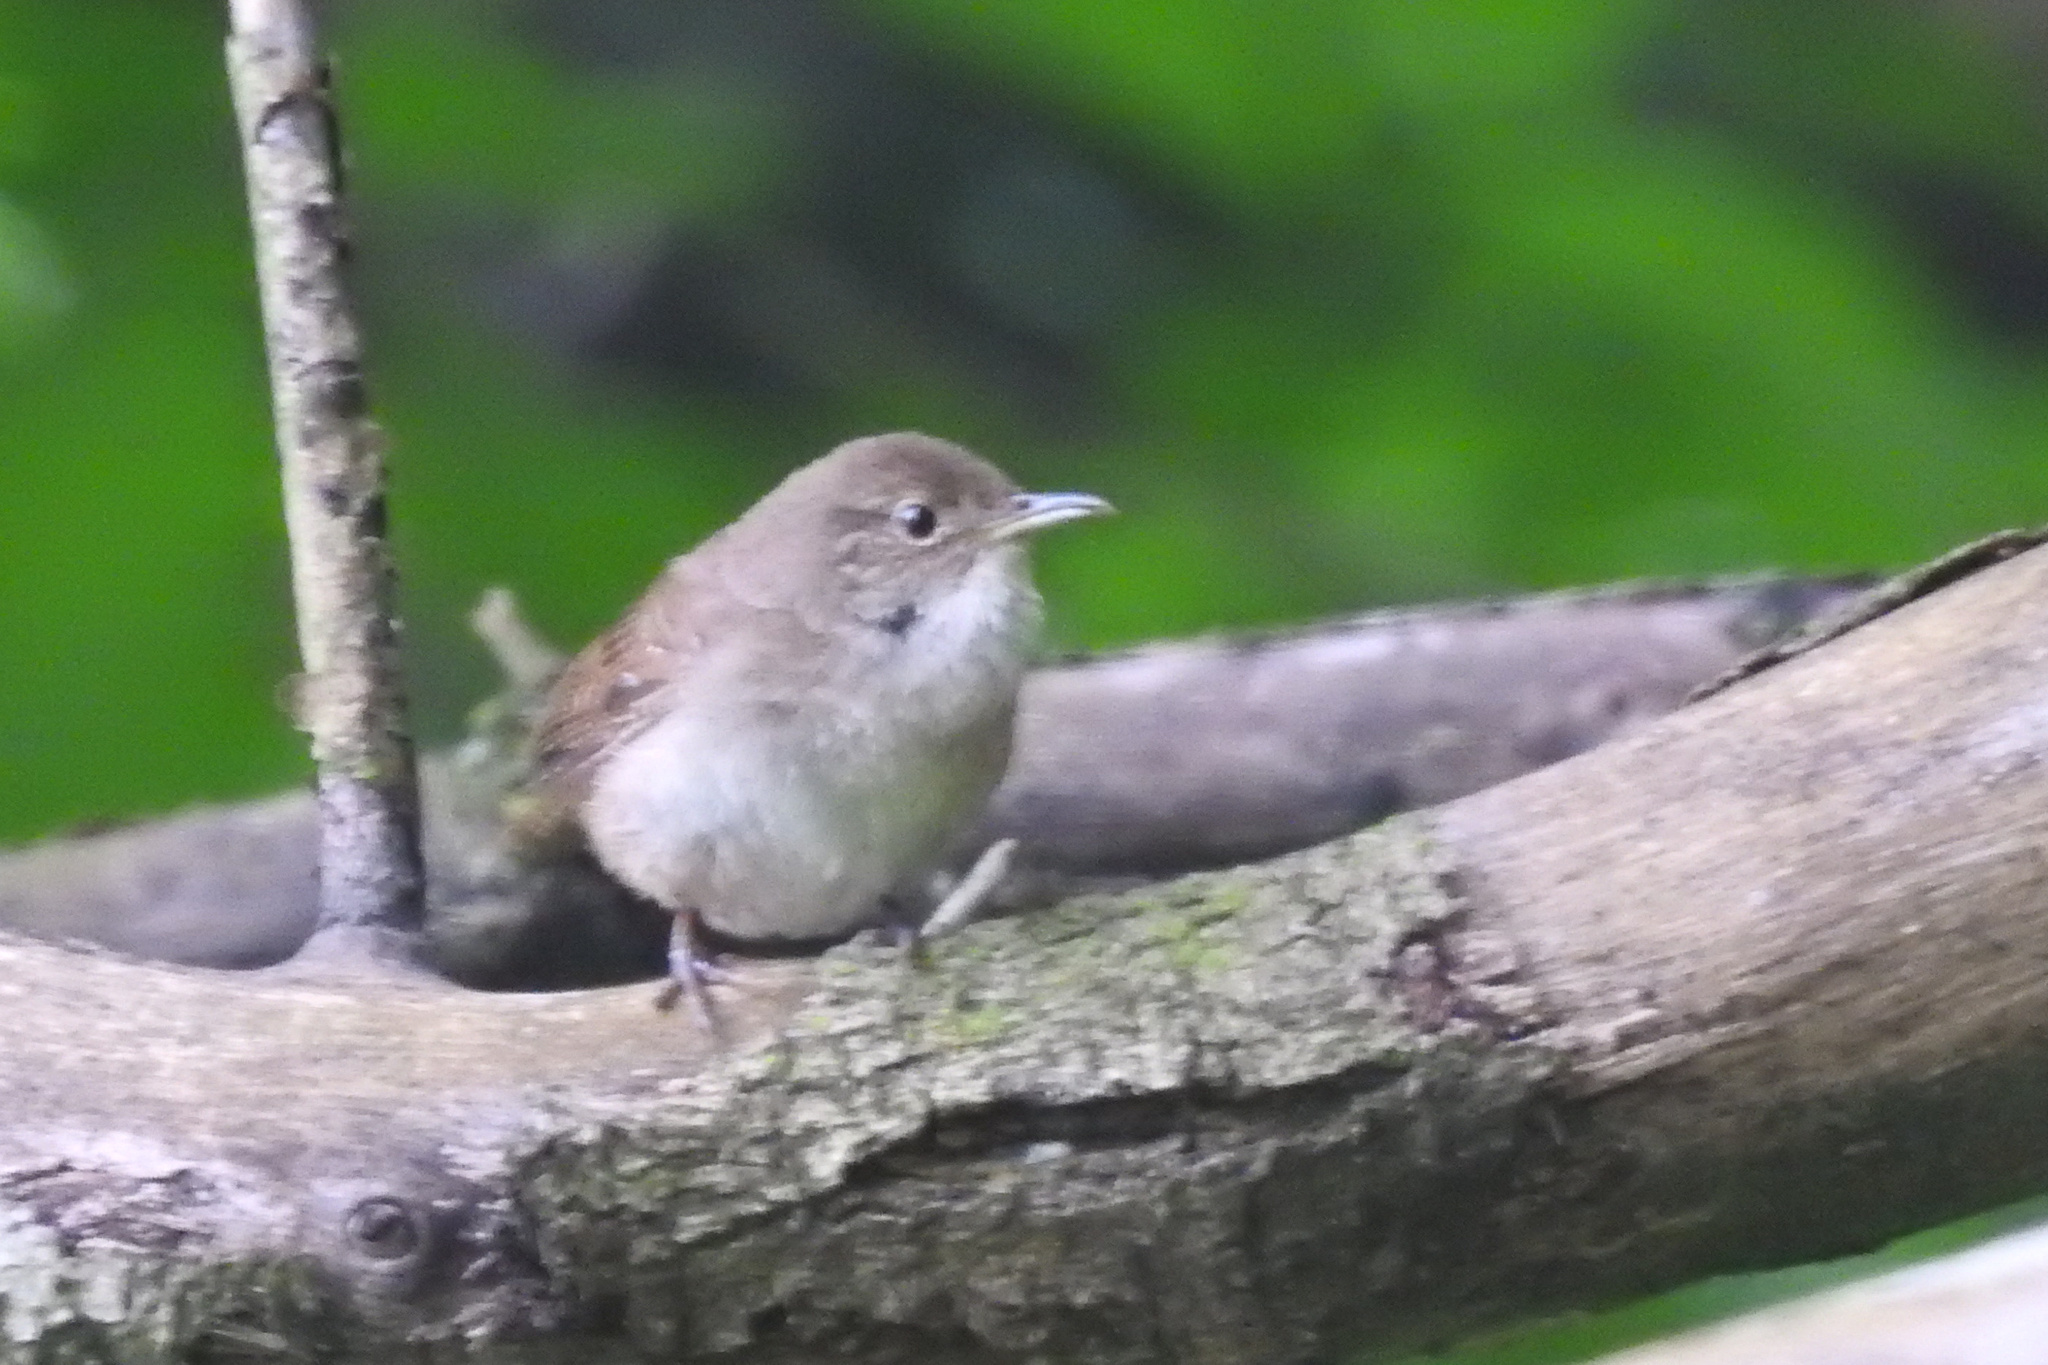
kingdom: Animalia
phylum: Chordata
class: Aves
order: Passeriformes
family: Troglodytidae
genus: Troglodytes
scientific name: Troglodytes aedon
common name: House wren
